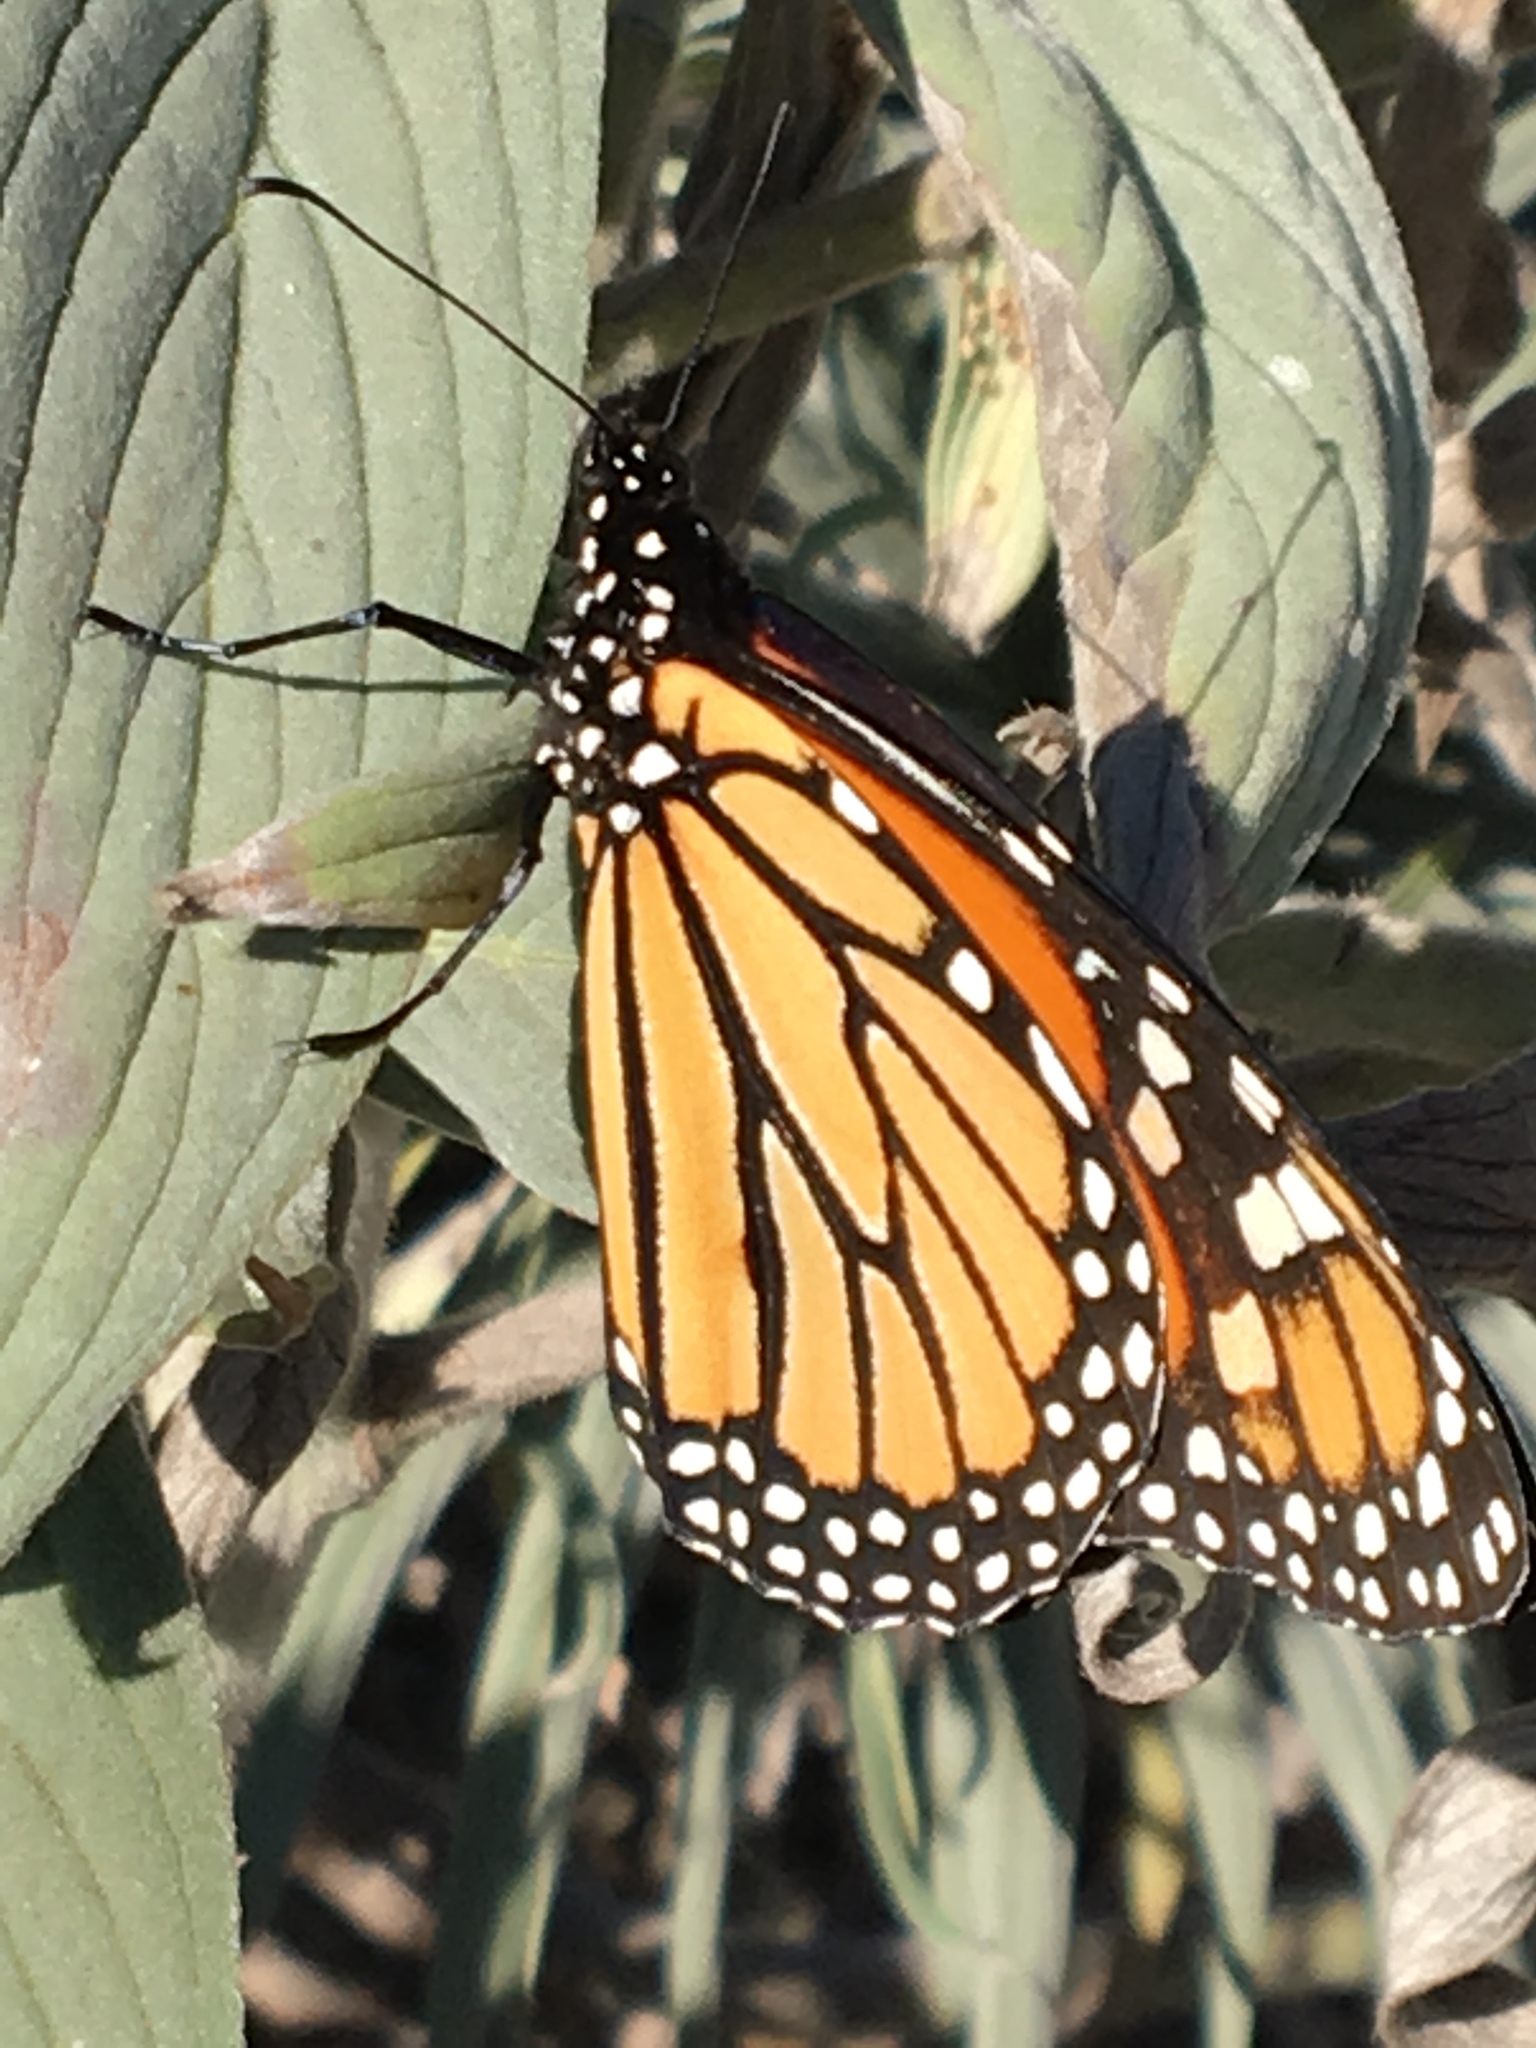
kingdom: Animalia
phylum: Arthropoda
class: Insecta
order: Lepidoptera
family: Nymphalidae
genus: Danaus
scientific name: Danaus plexippus
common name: Monarch
